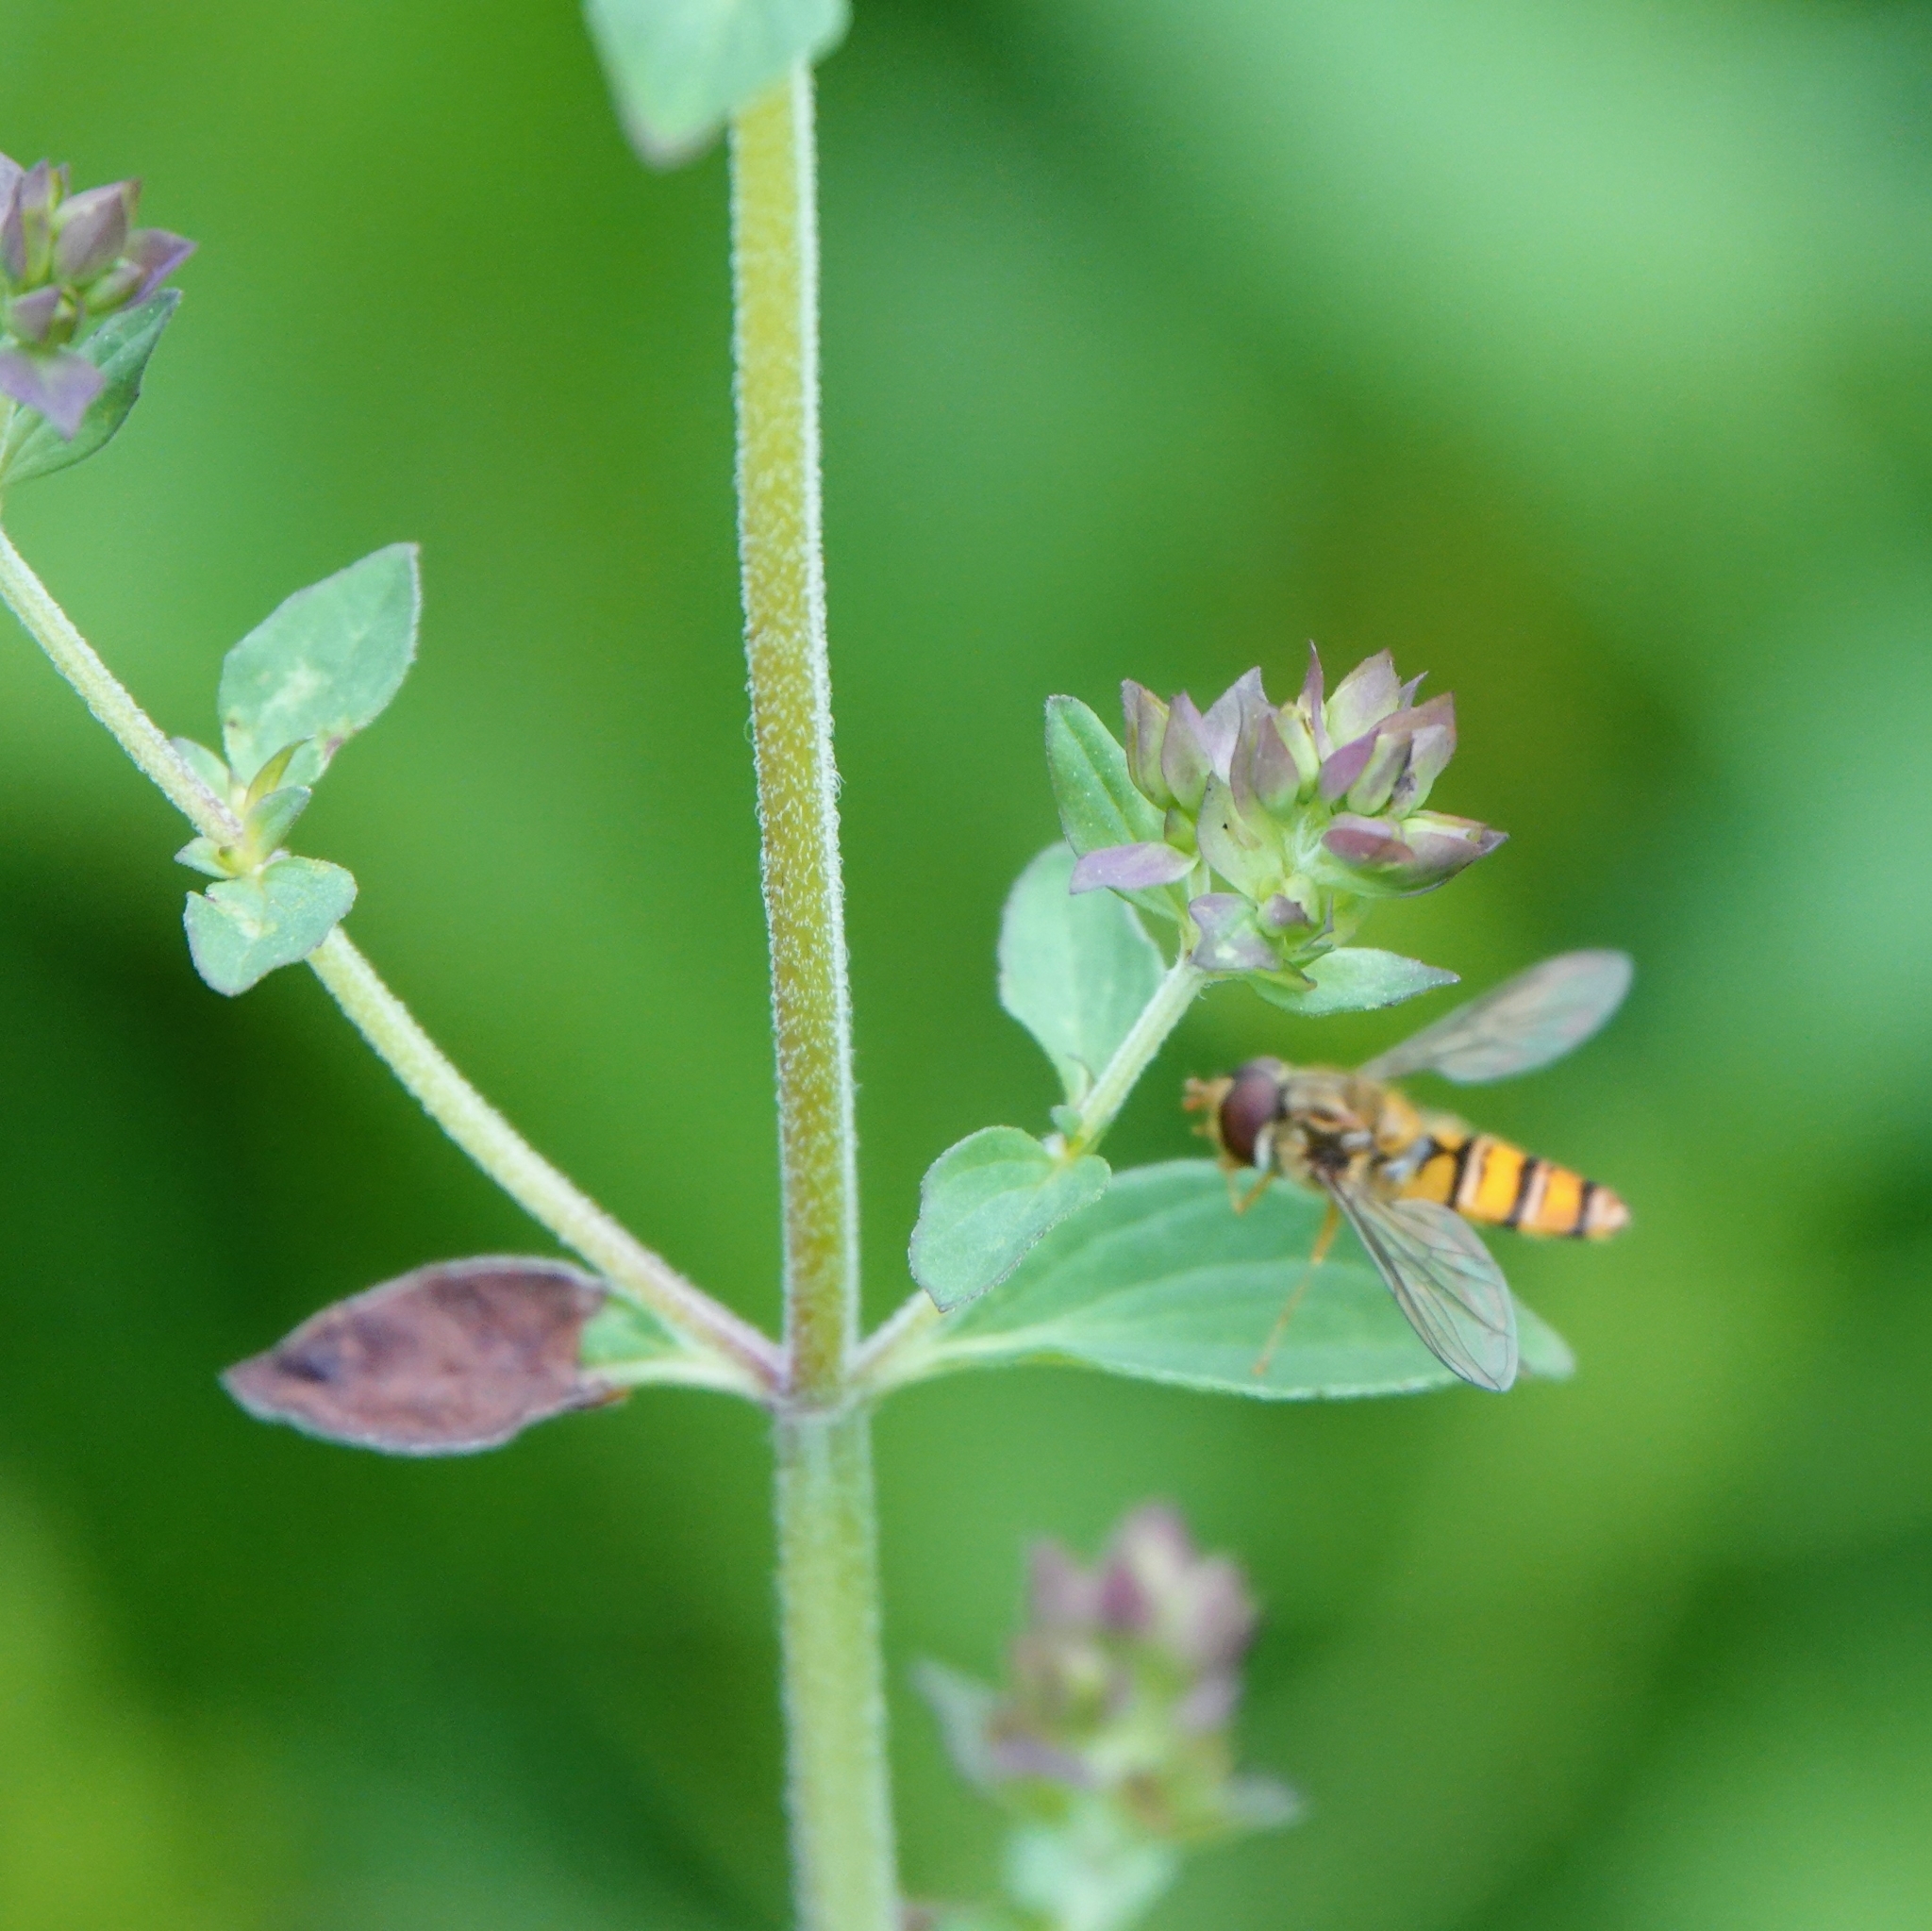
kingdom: Animalia
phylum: Arthropoda
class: Insecta
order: Diptera
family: Syrphidae
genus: Episyrphus
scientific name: Episyrphus balteatus
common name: Marmalade hoverfly
